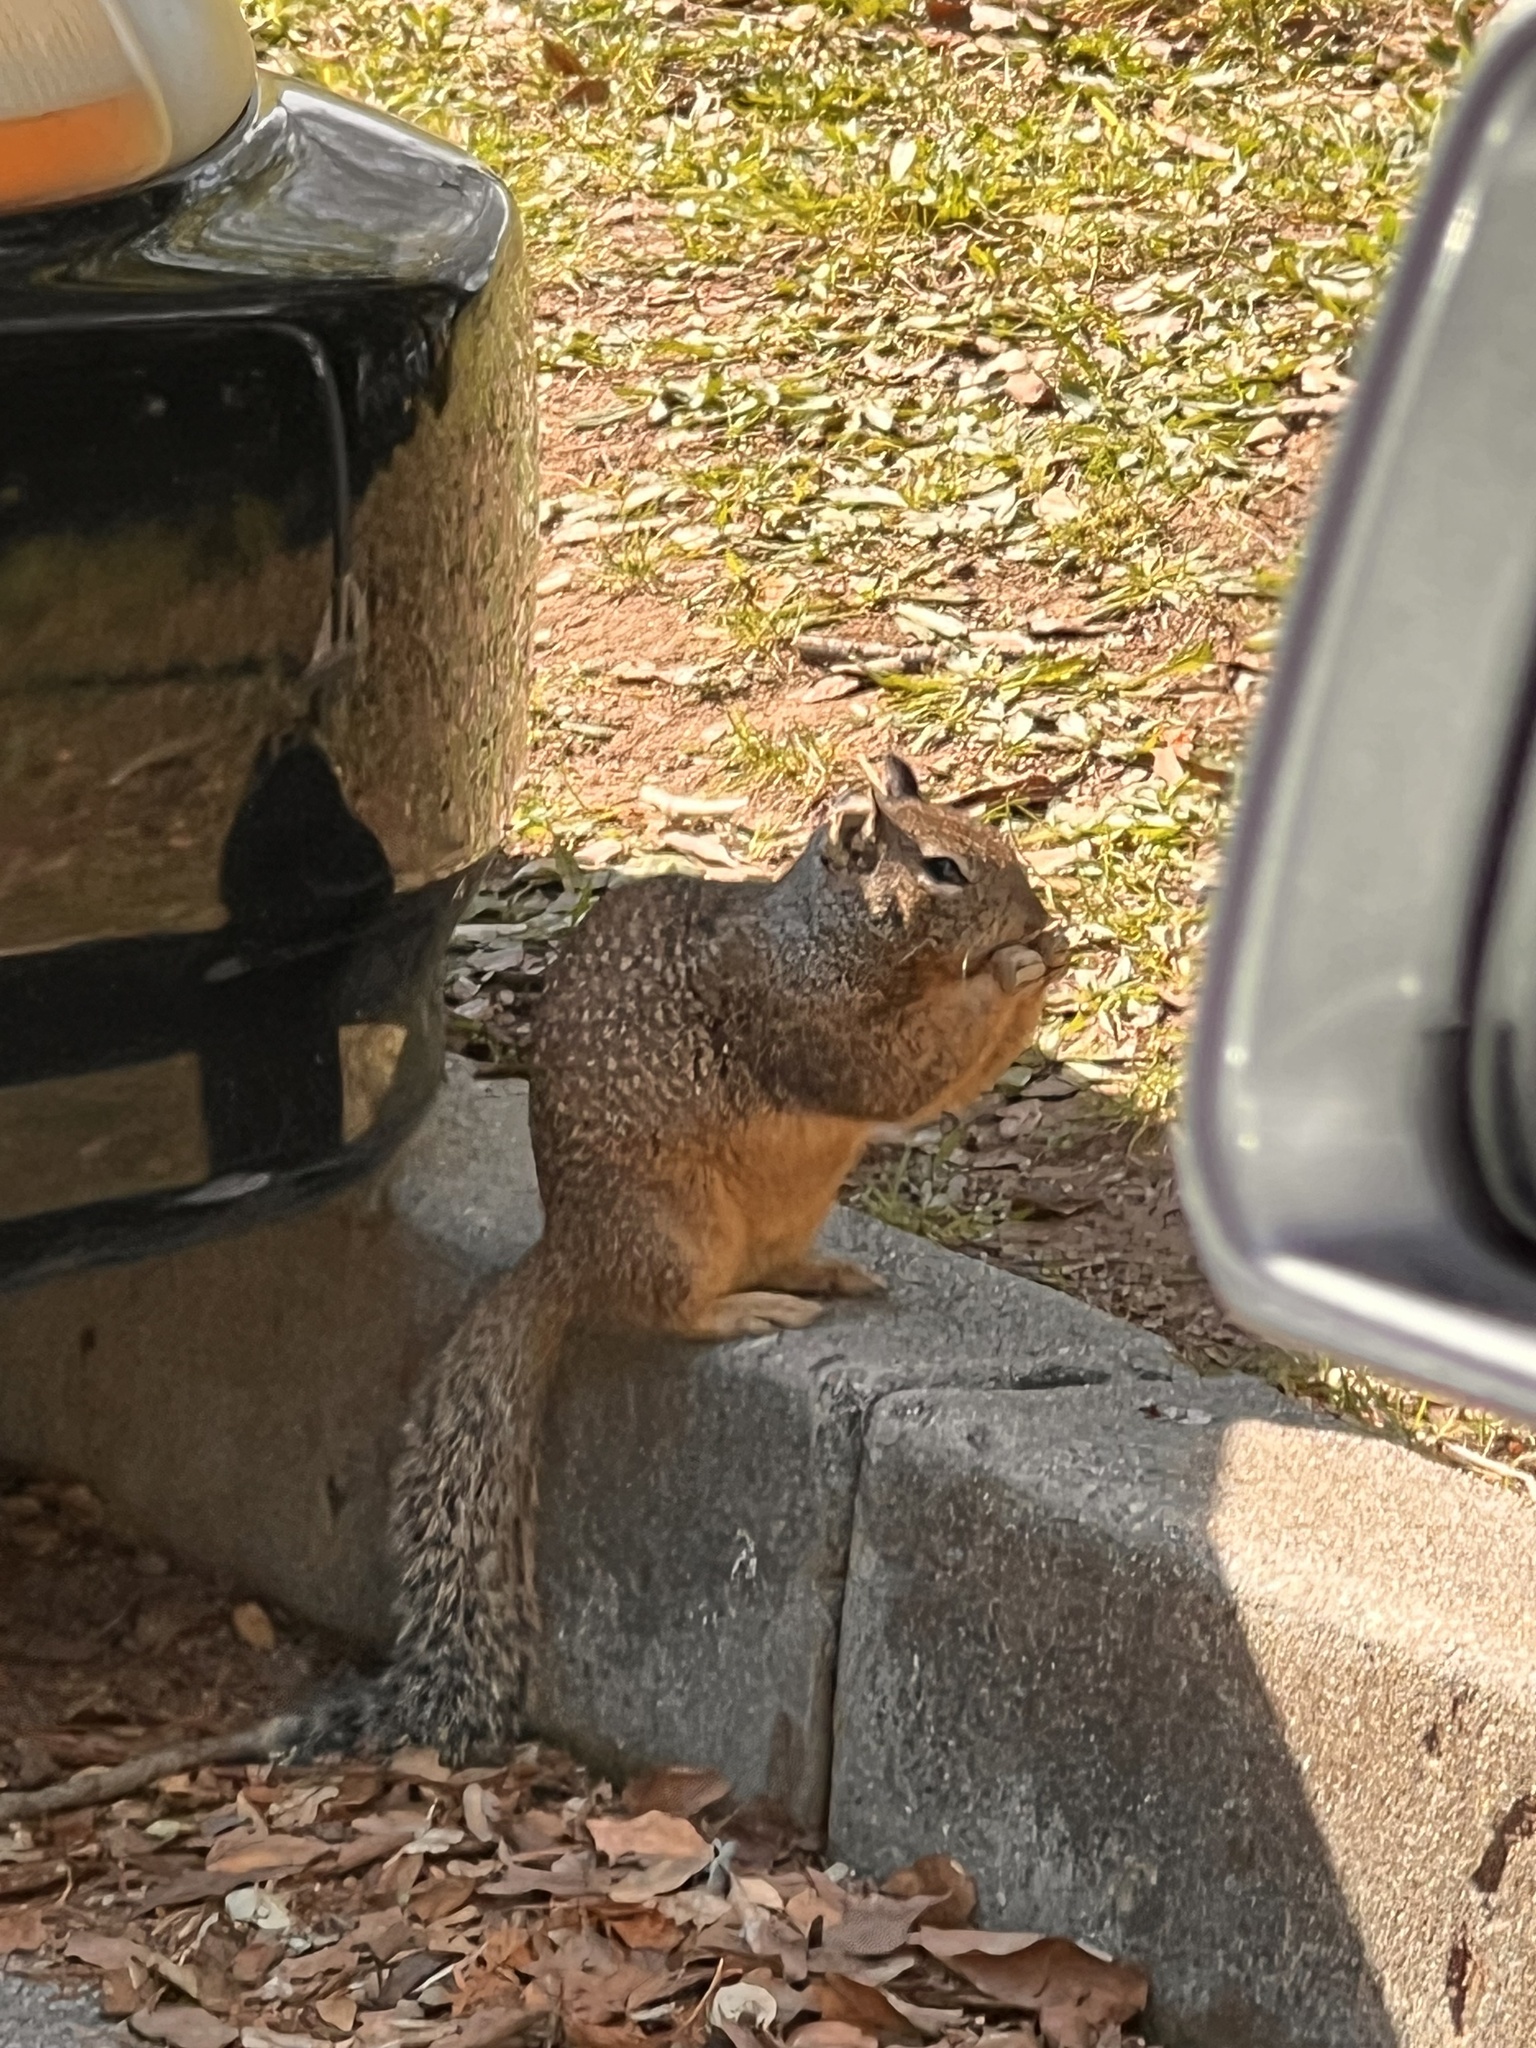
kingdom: Animalia
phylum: Chordata
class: Mammalia
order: Rodentia
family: Sciuridae
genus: Otospermophilus
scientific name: Otospermophilus beecheyi
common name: California ground squirrel
